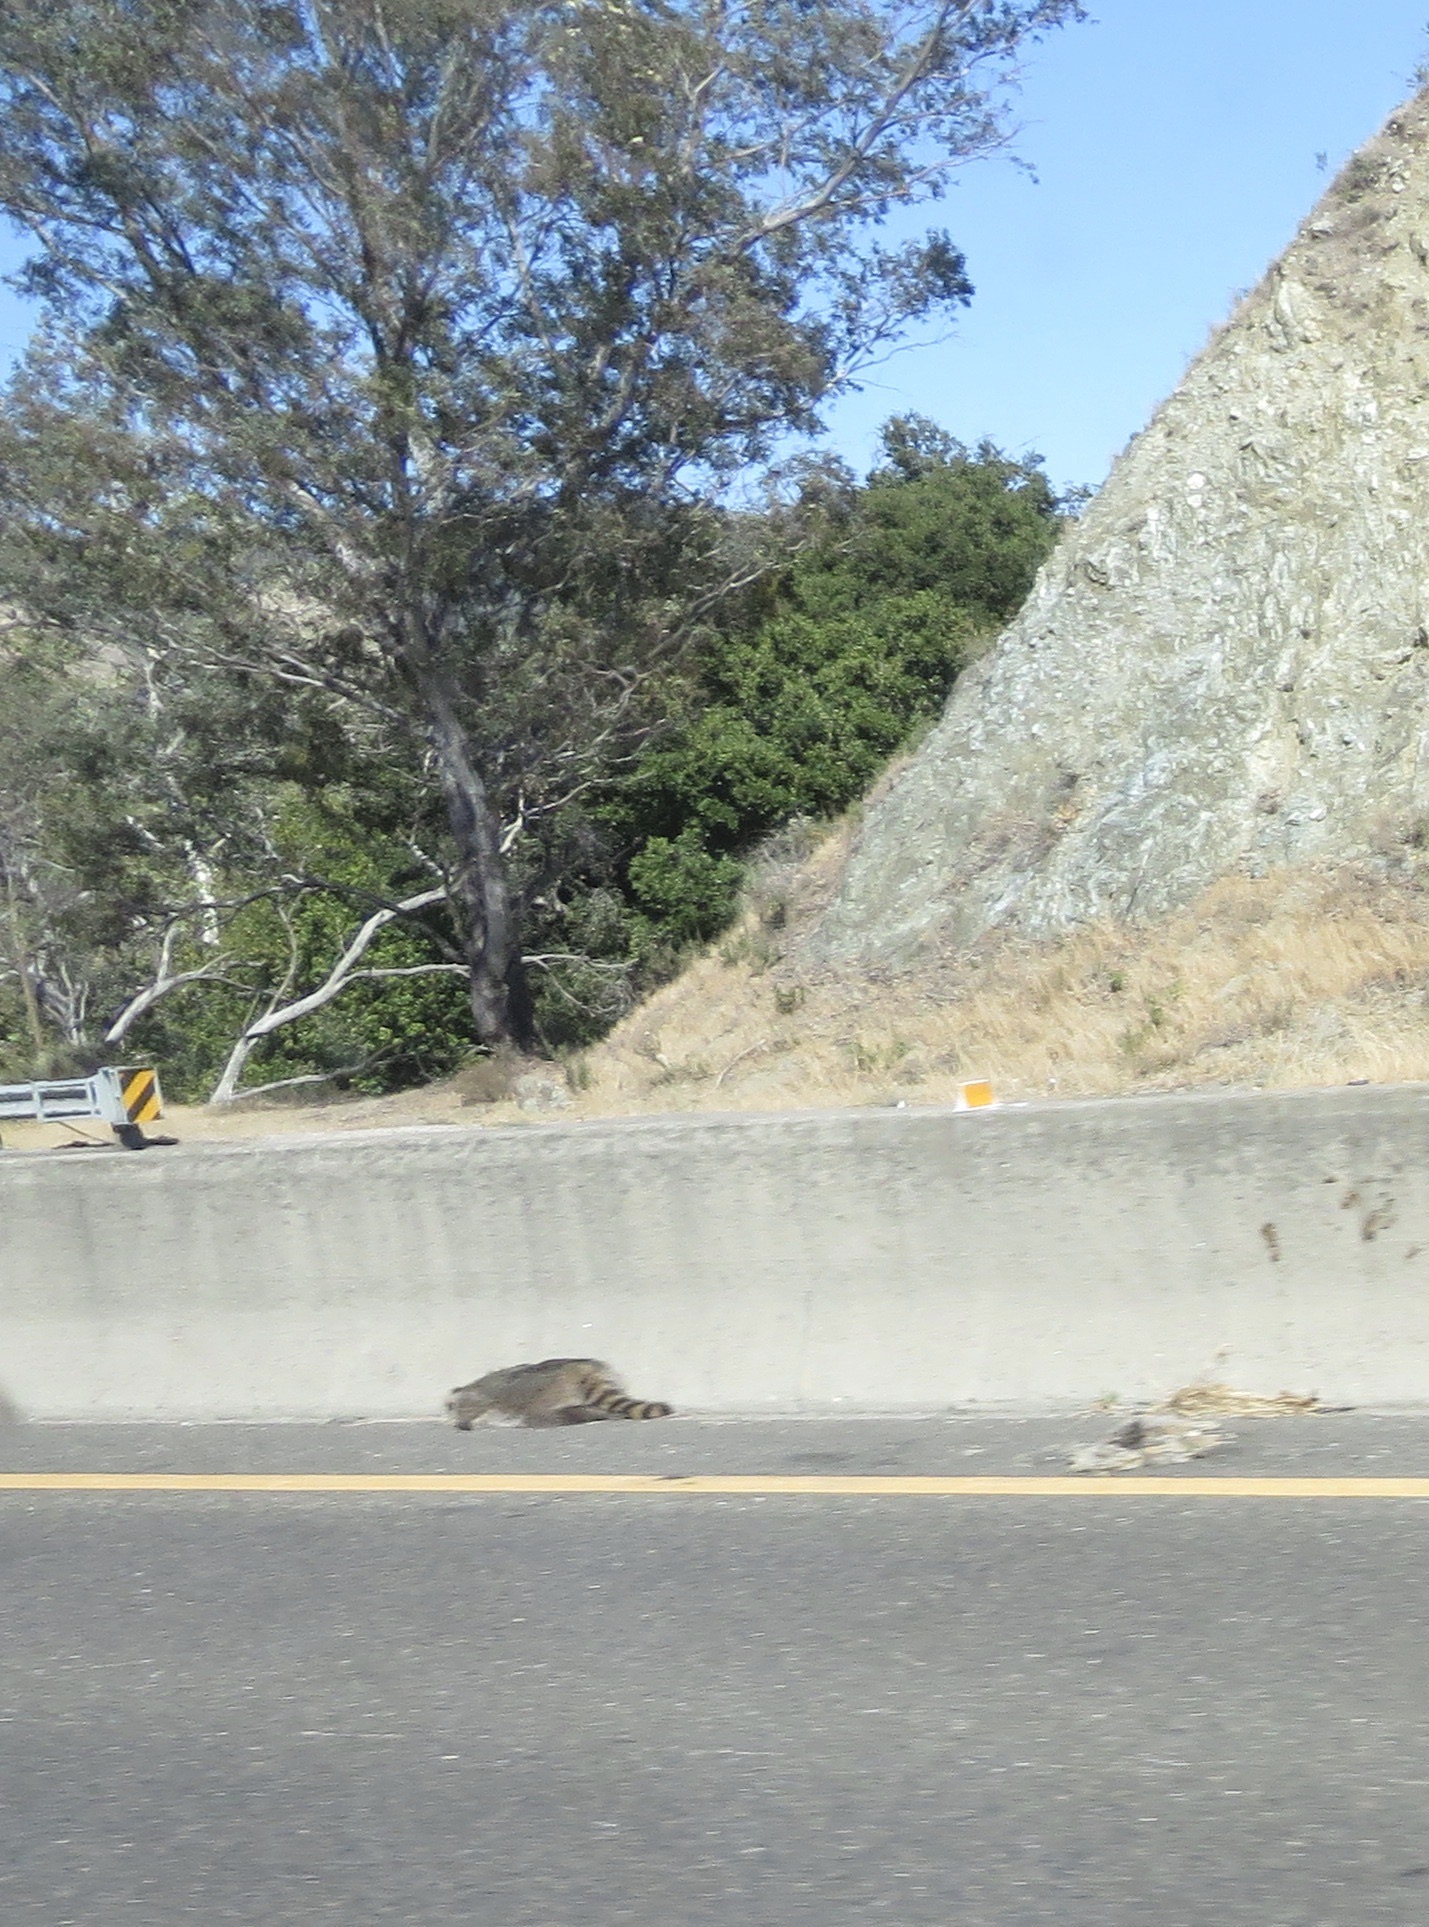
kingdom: Animalia
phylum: Chordata
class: Mammalia
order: Carnivora
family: Procyonidae
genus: Procyon
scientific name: Procyon lotor
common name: Raccoon
